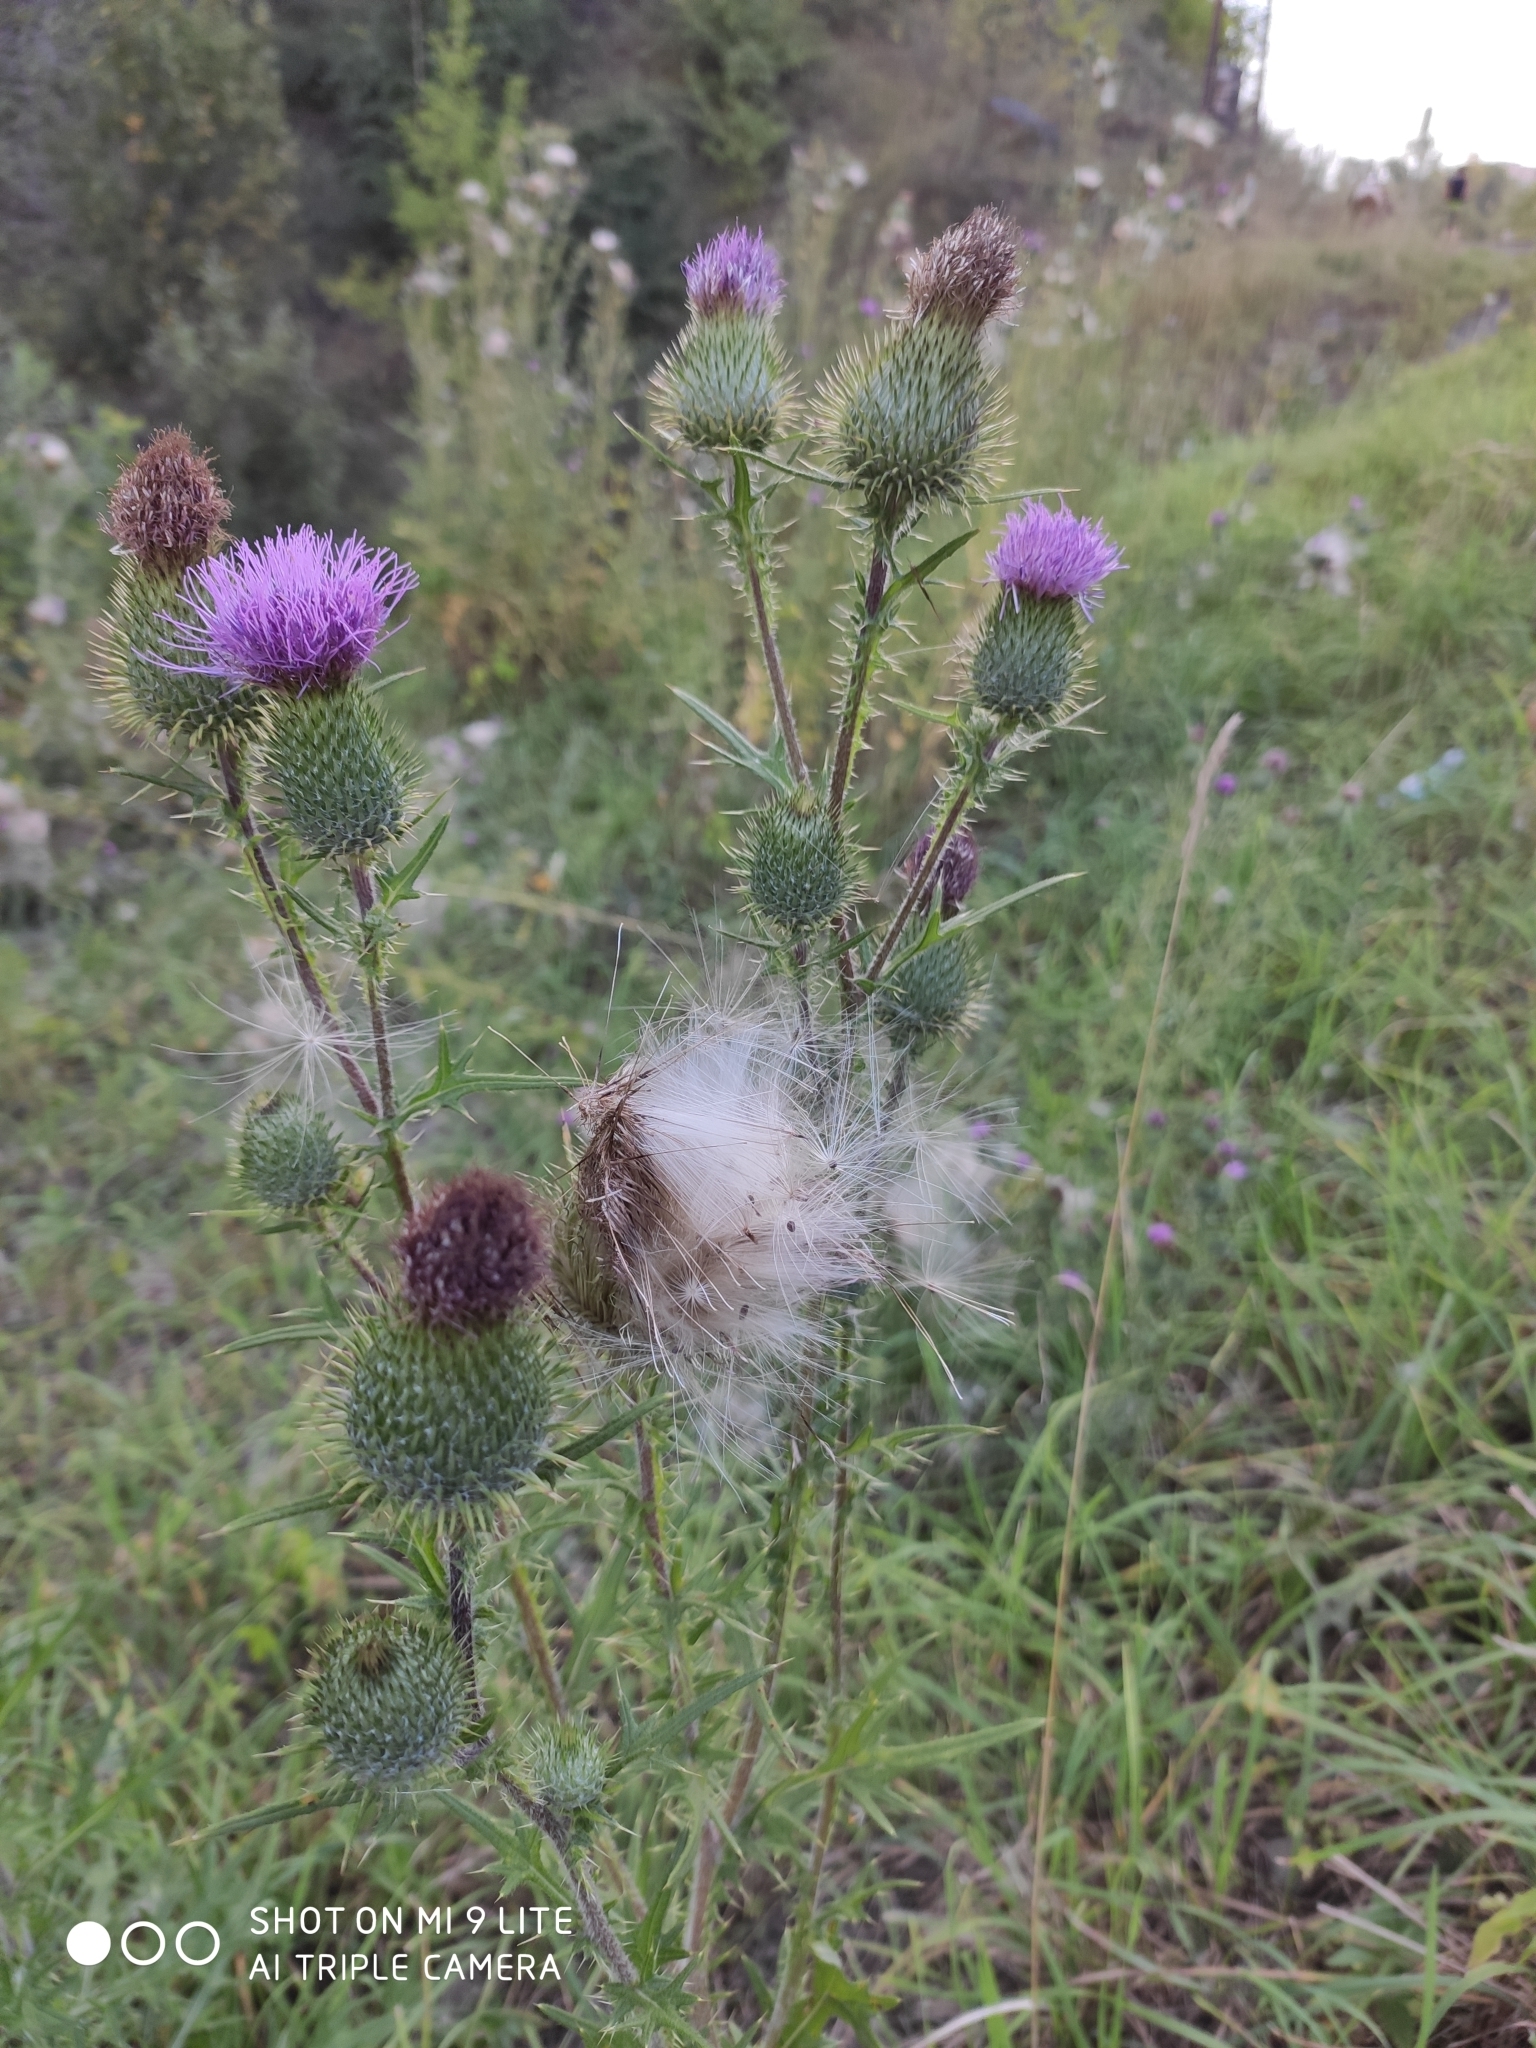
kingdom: Plantae
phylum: Tracheophyta
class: Magnoliopsida
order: Asterales
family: Asteraceae
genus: Cirsium
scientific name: Cirsium vulgare
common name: Bull thistle
